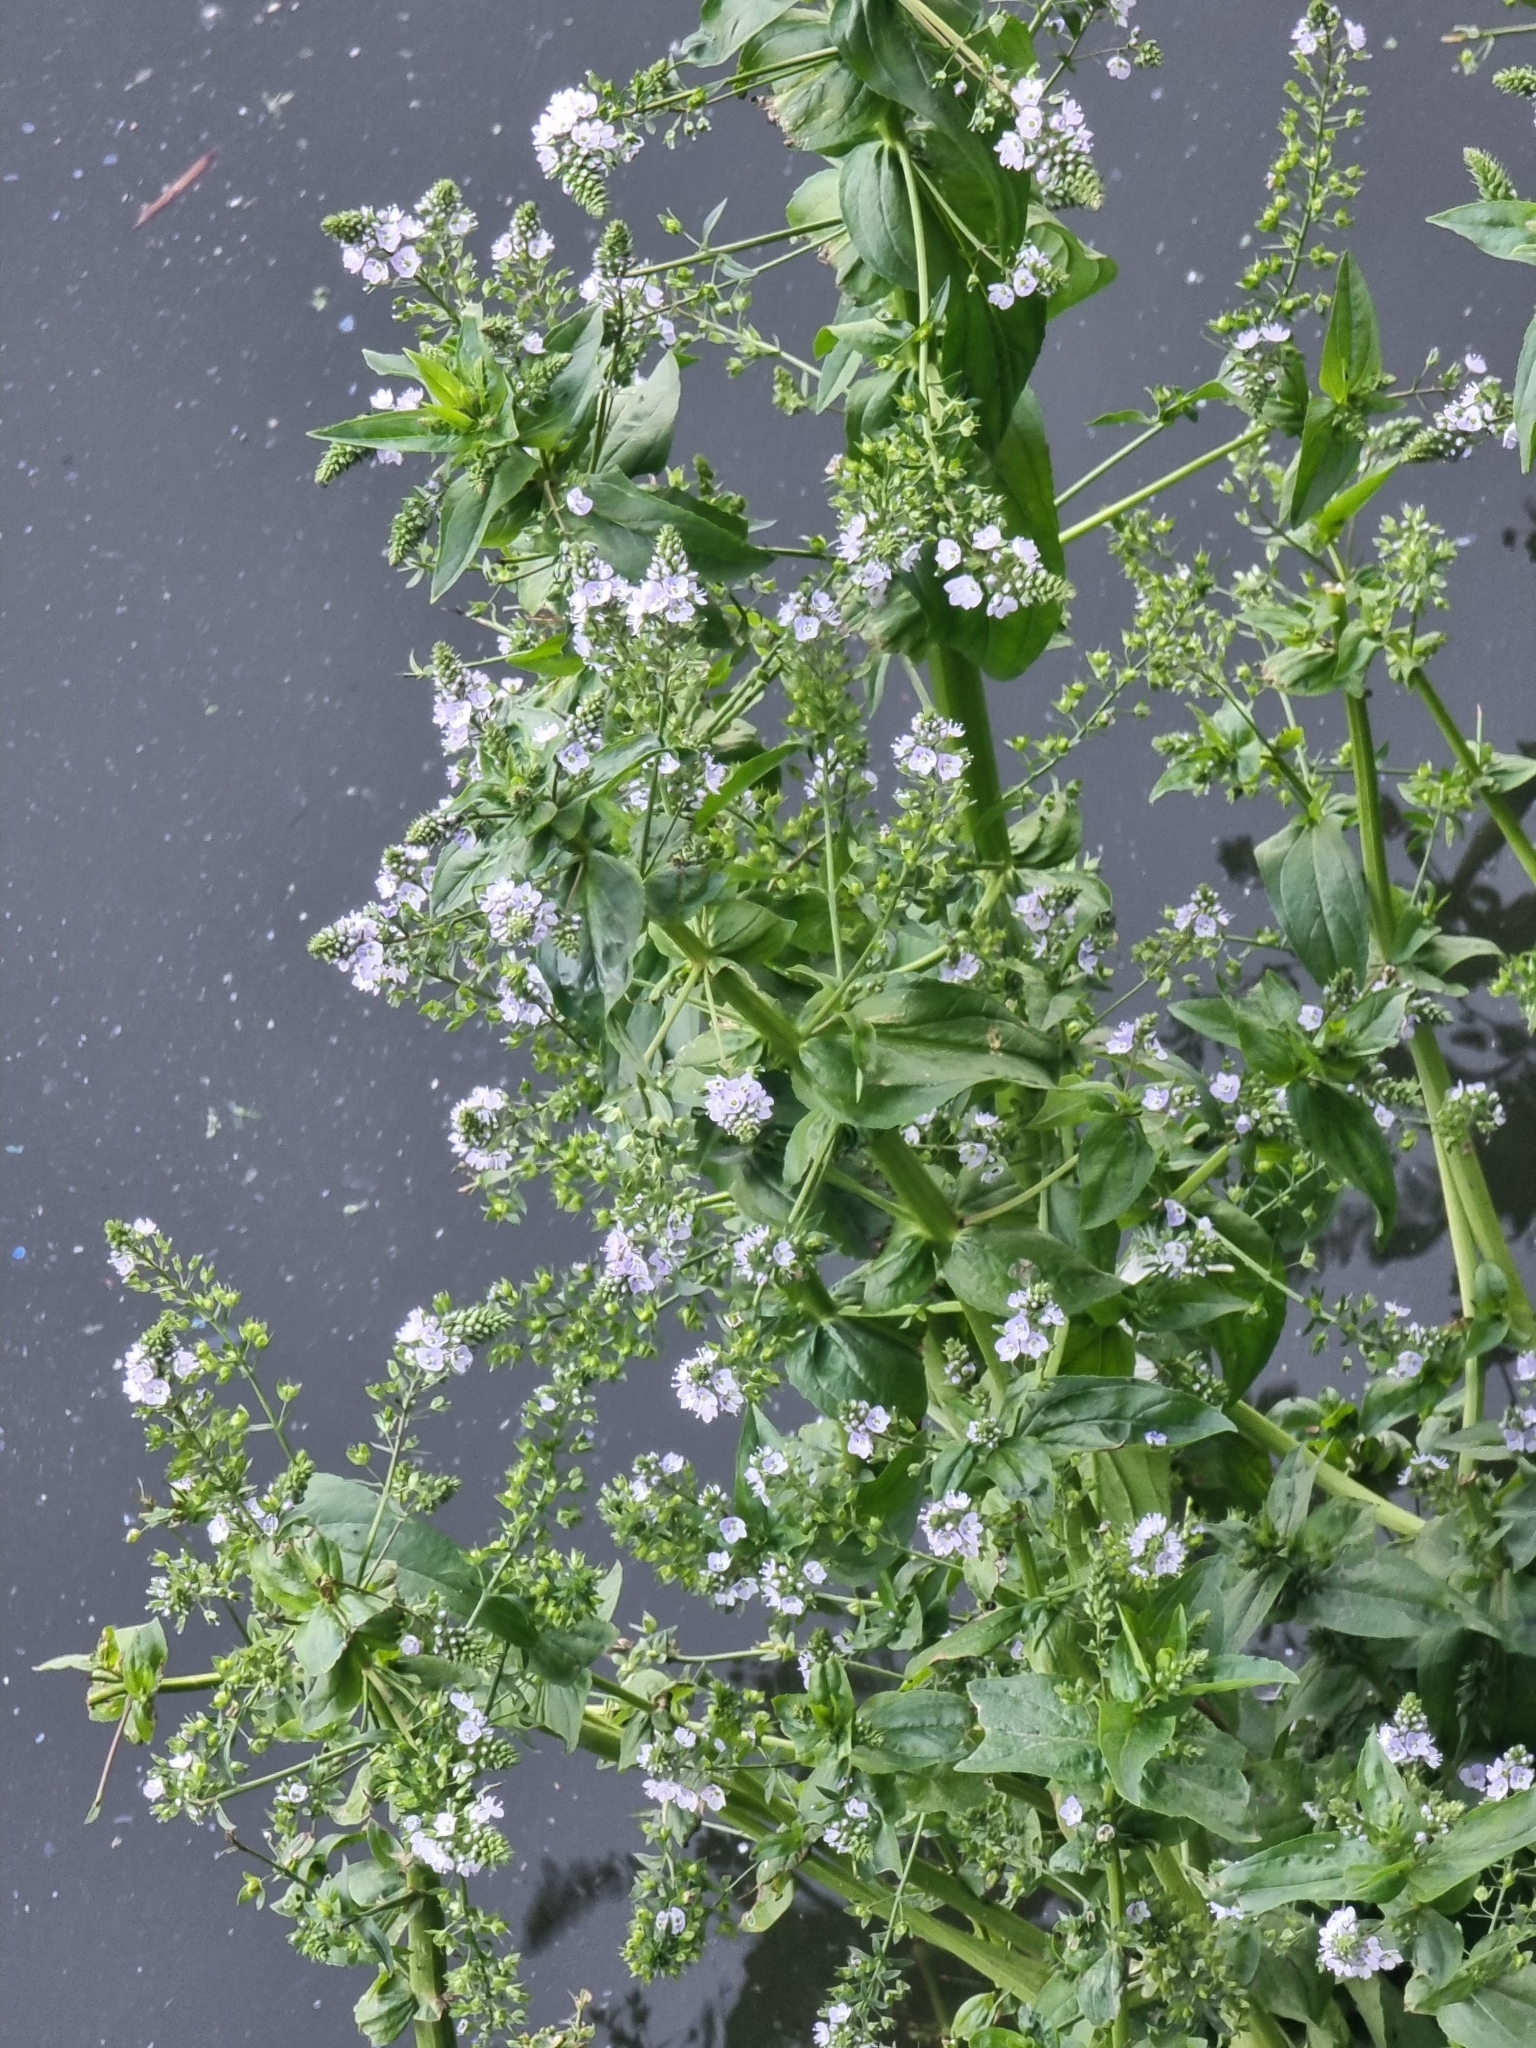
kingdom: Plantae
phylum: Tracheophyta
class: Magnoliopsida
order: Lamiales
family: Plantaginaceae
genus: Veronica
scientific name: Veronica anagallis-aquatica
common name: Water speedwell
